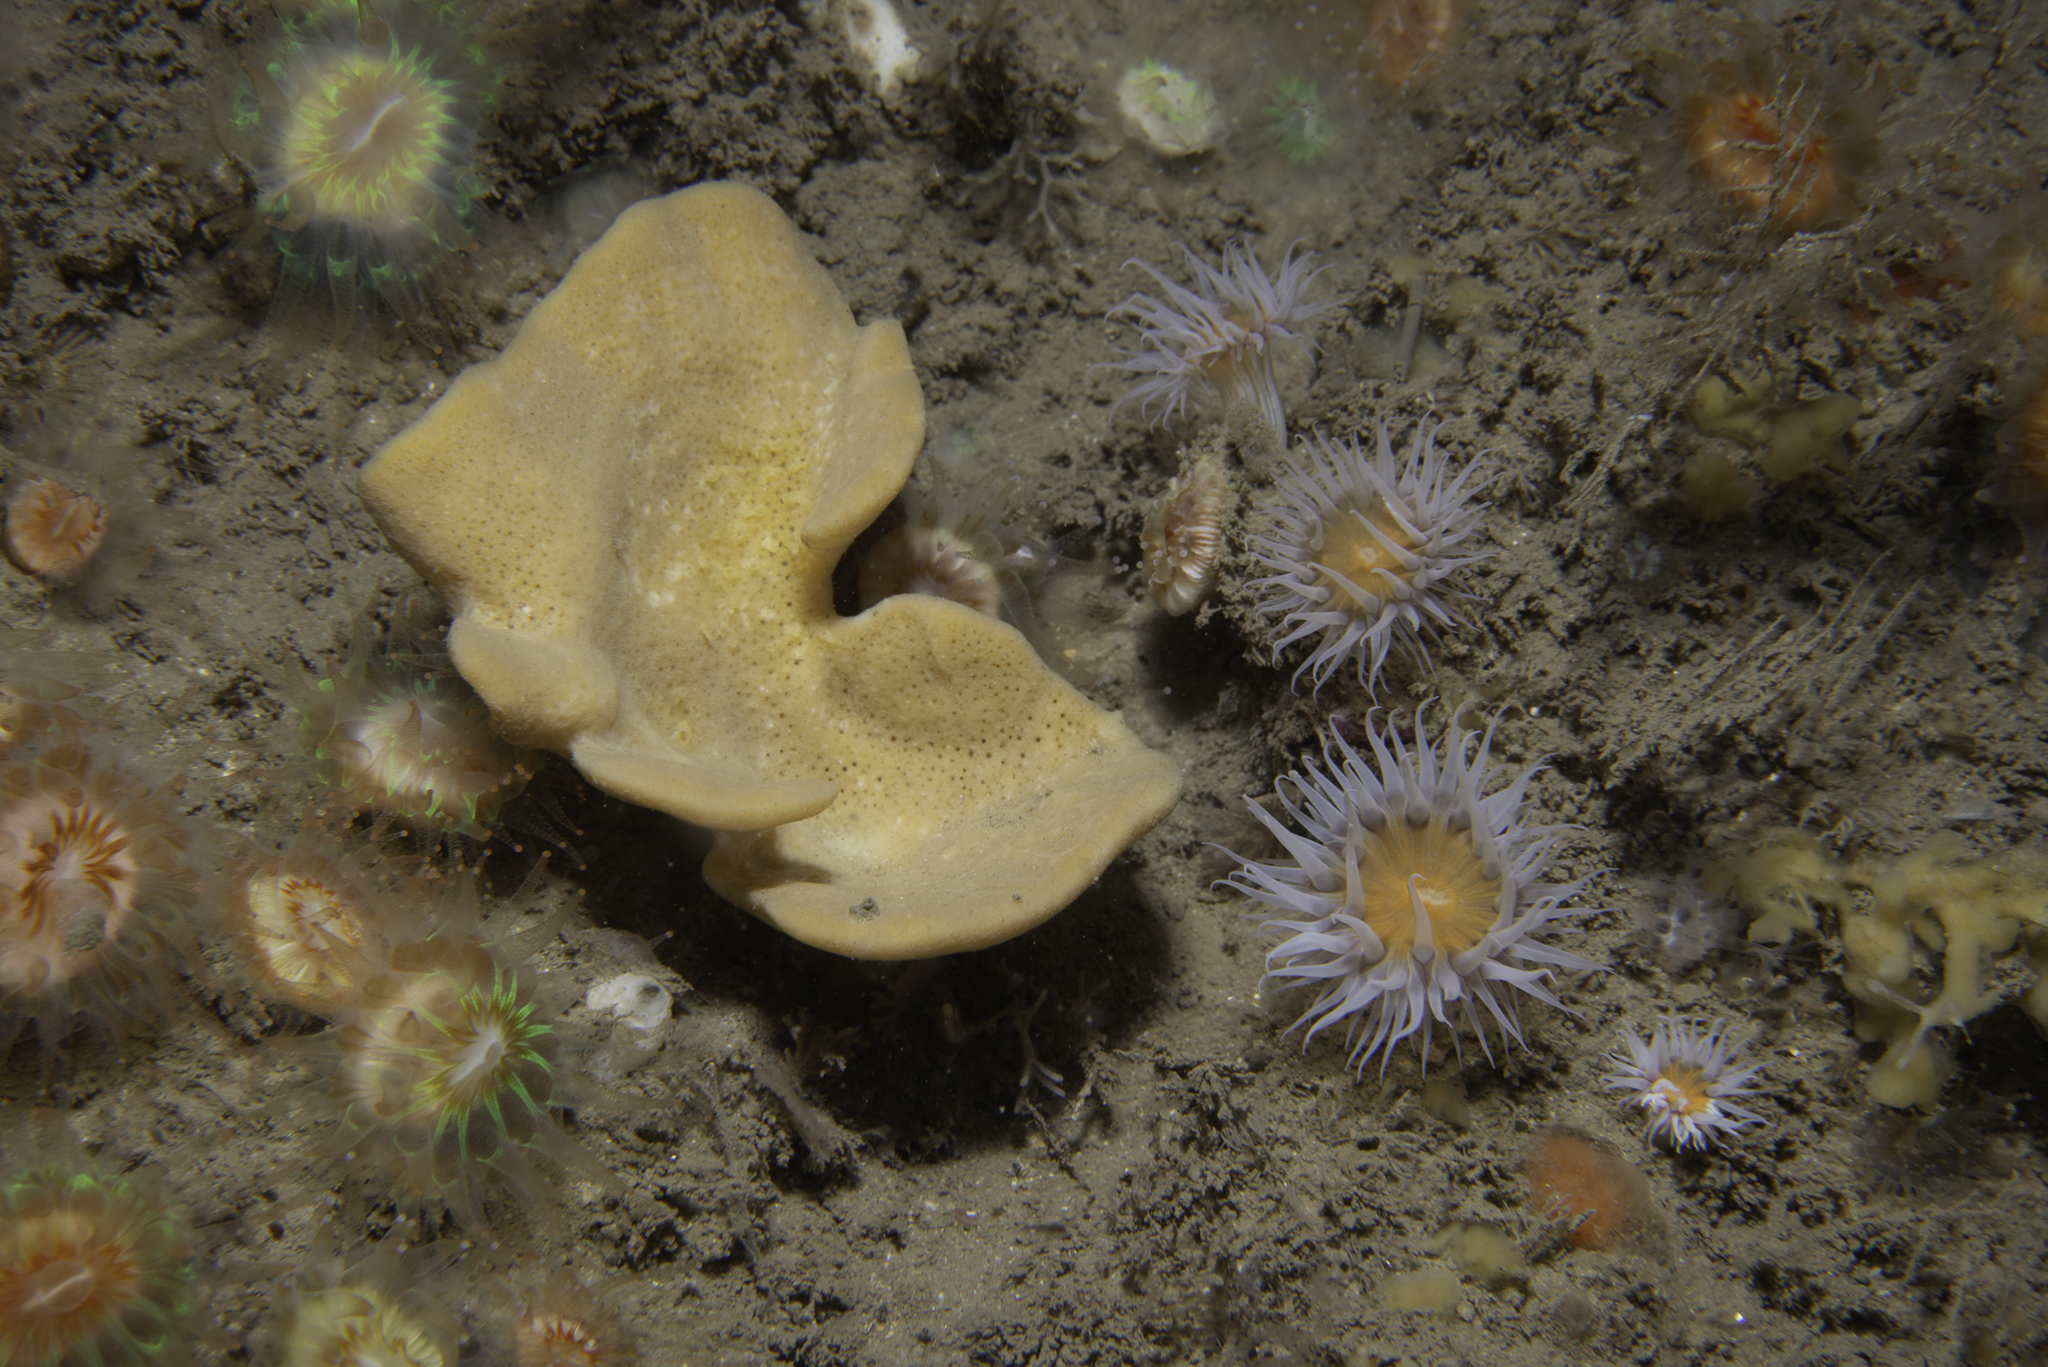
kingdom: Animalia
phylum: Porifera
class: Demospongiae
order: Axinellida
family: Axinellidae
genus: Axinella
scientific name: Axinella infundibuliformis
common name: North atlantic cup sponge
